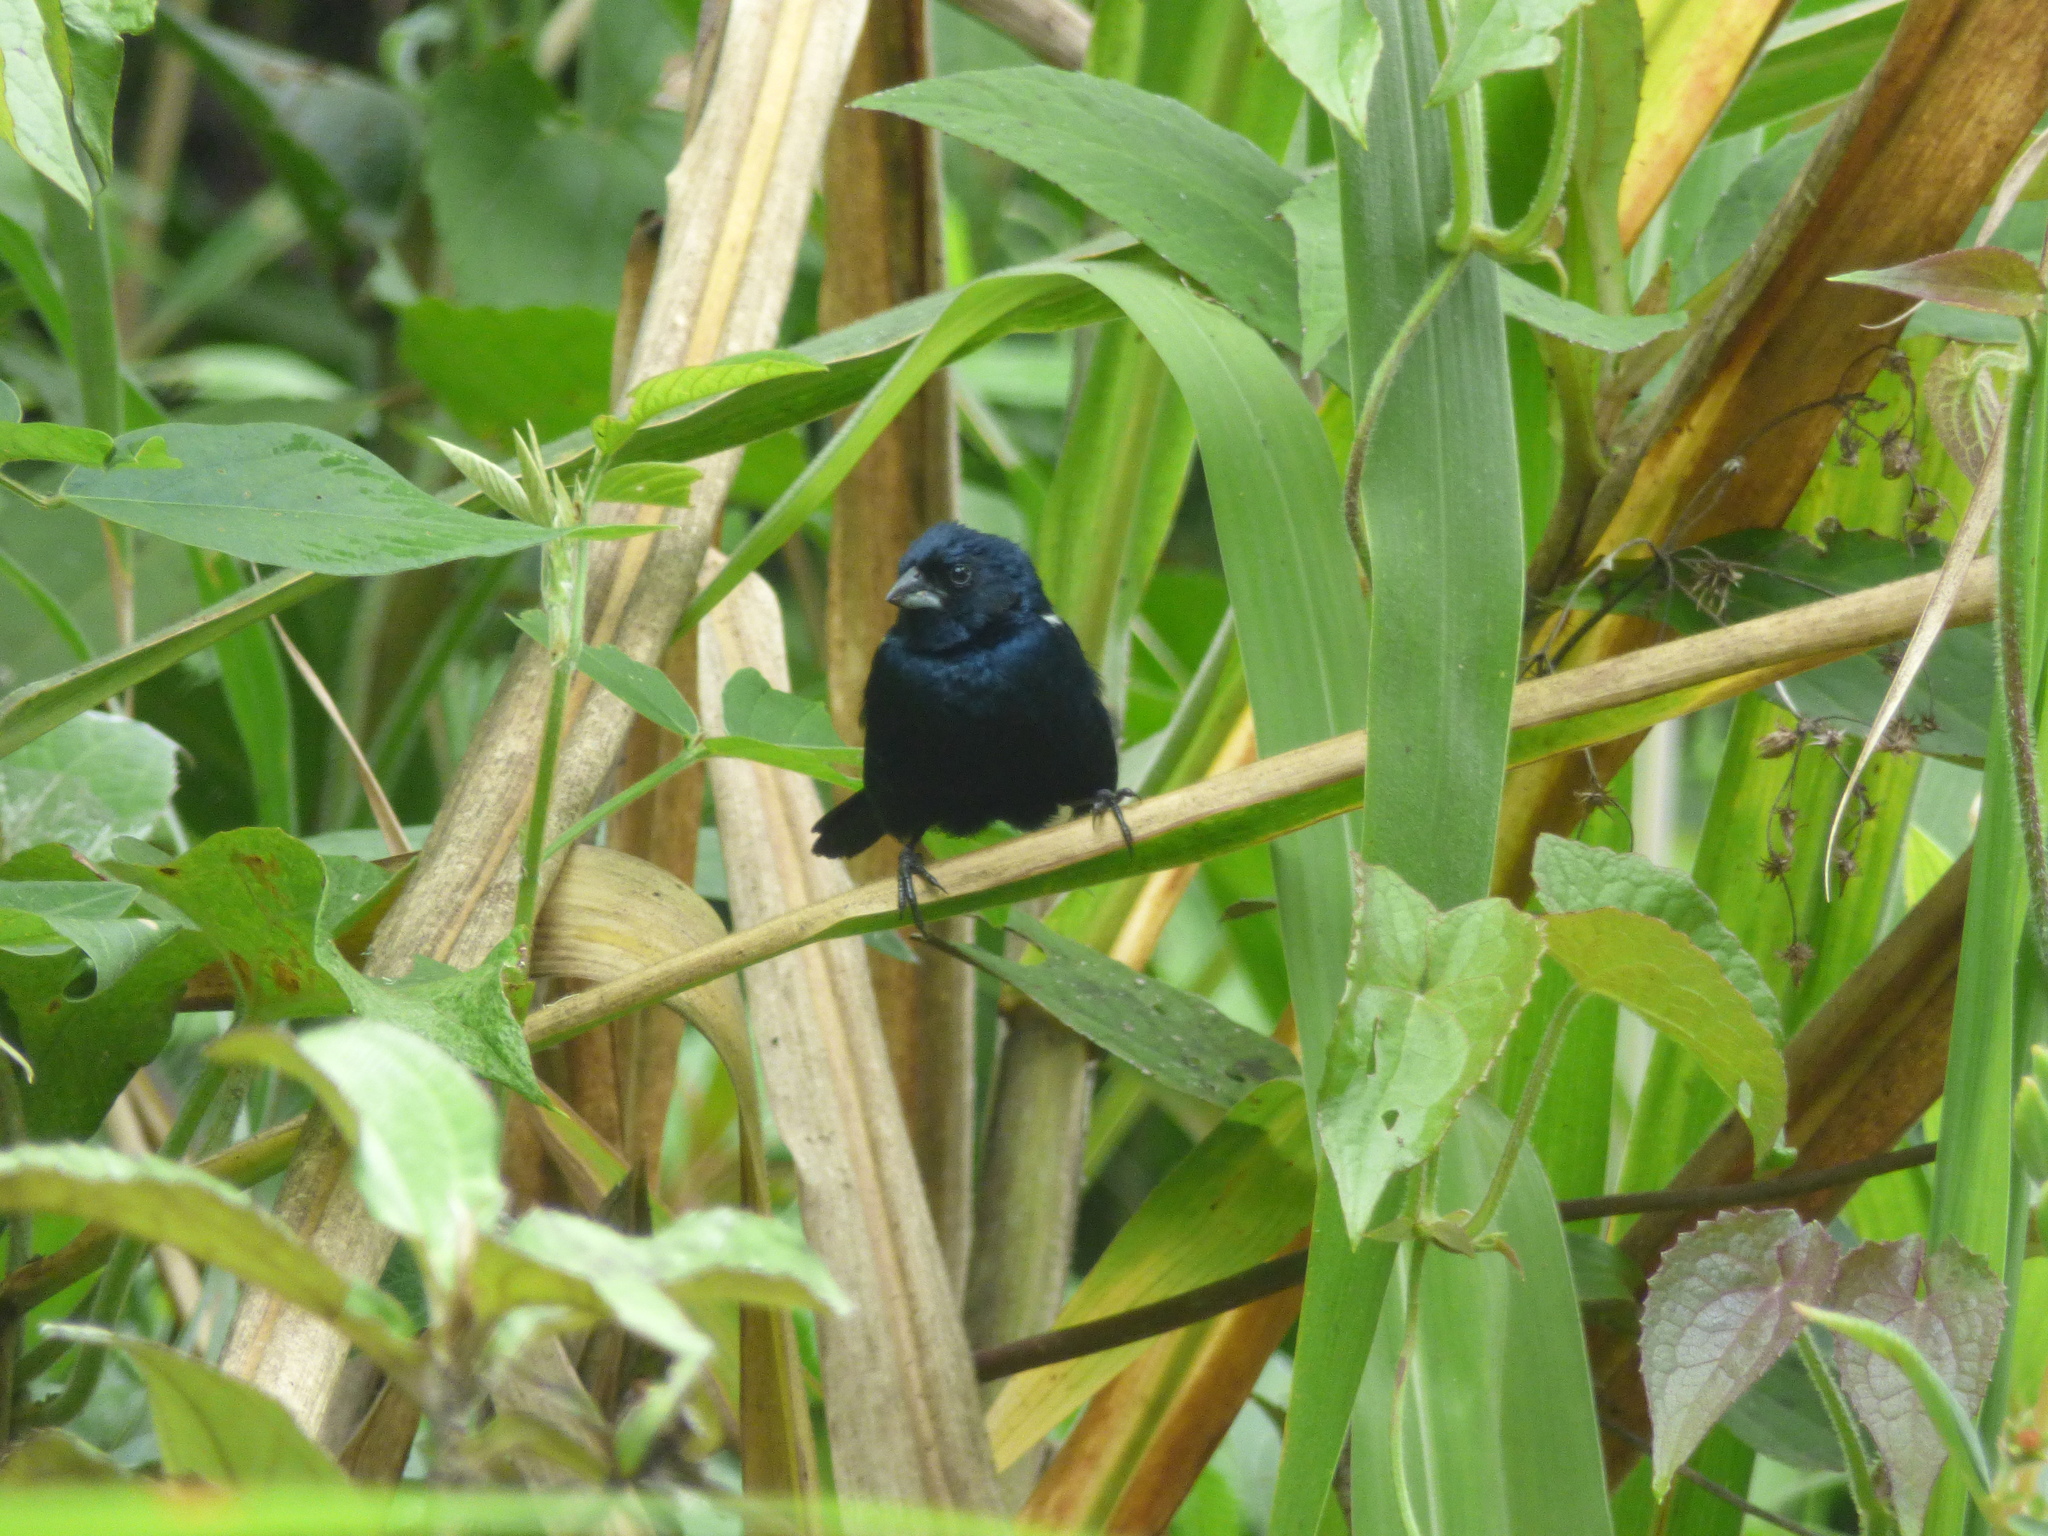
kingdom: Animalia
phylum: Chordata
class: Aves
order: Passeriformes
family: Thraupidae
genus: Volatinia
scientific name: Volatinia jacarina
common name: Blue-black grassquit
